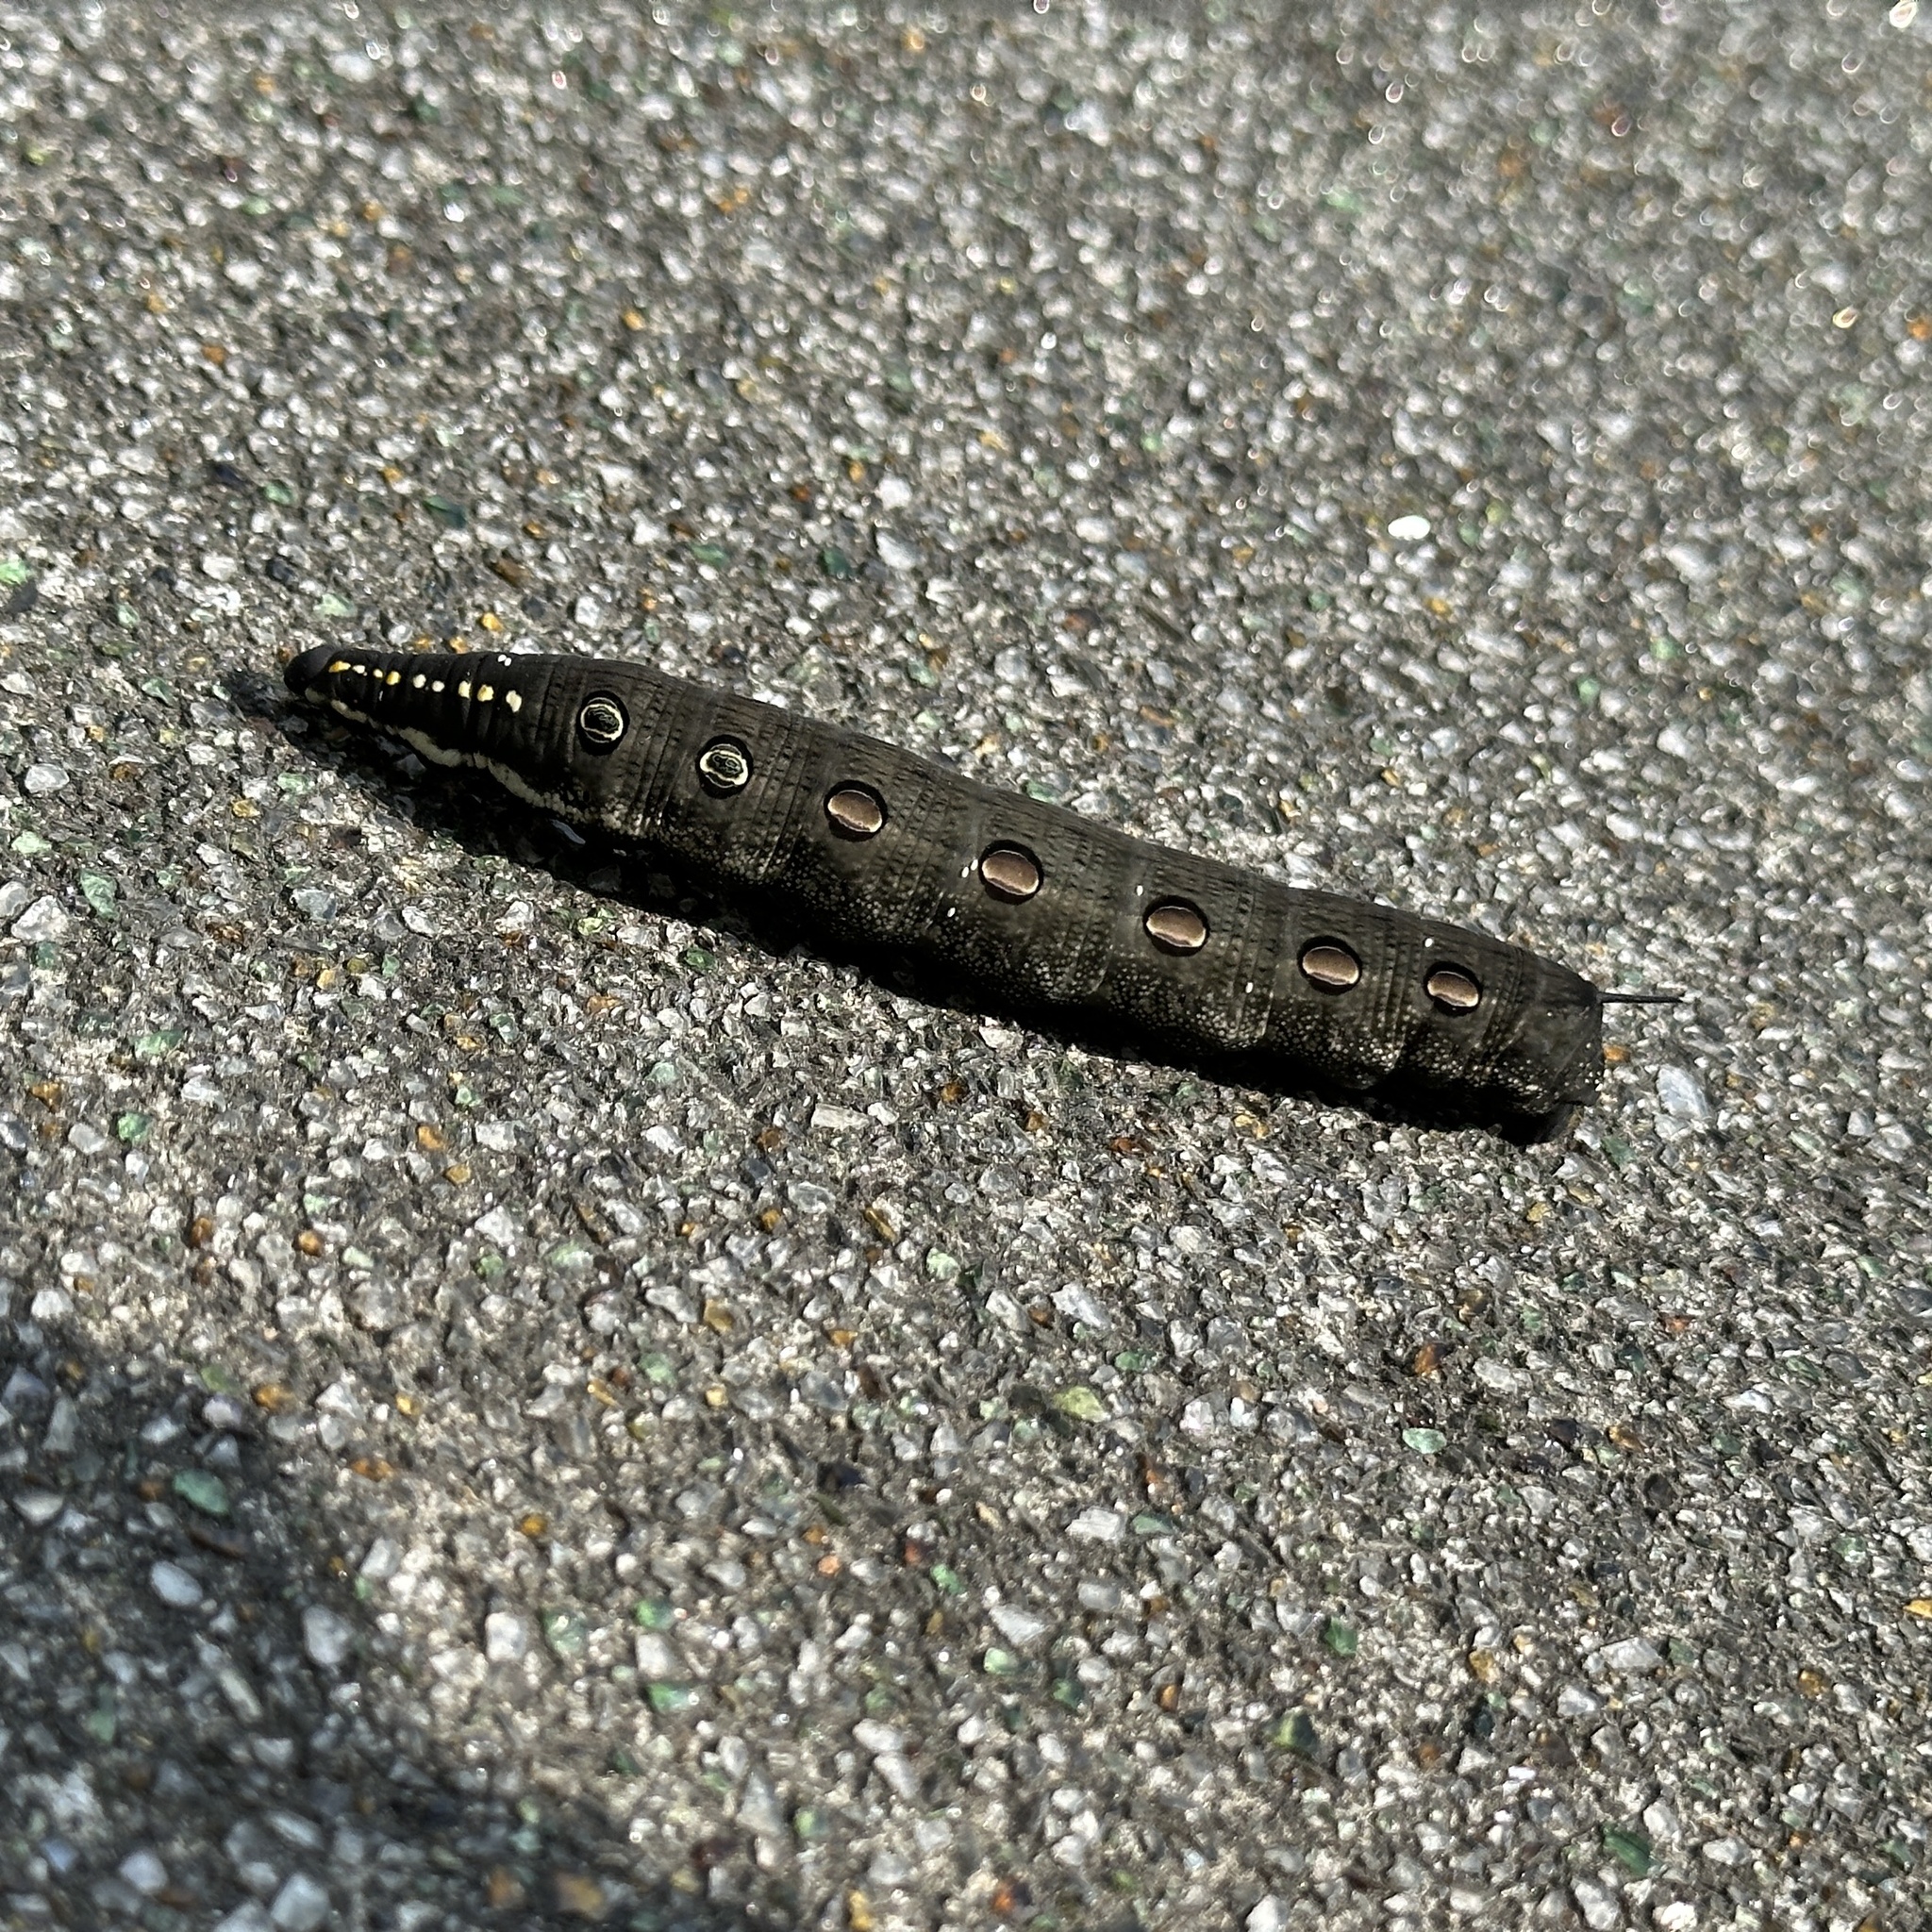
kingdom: Animalia
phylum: Arthropoda
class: Insecta
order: Lepidoptera
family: Sphingidae
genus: Theretra
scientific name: Theretra oldenlandiae
